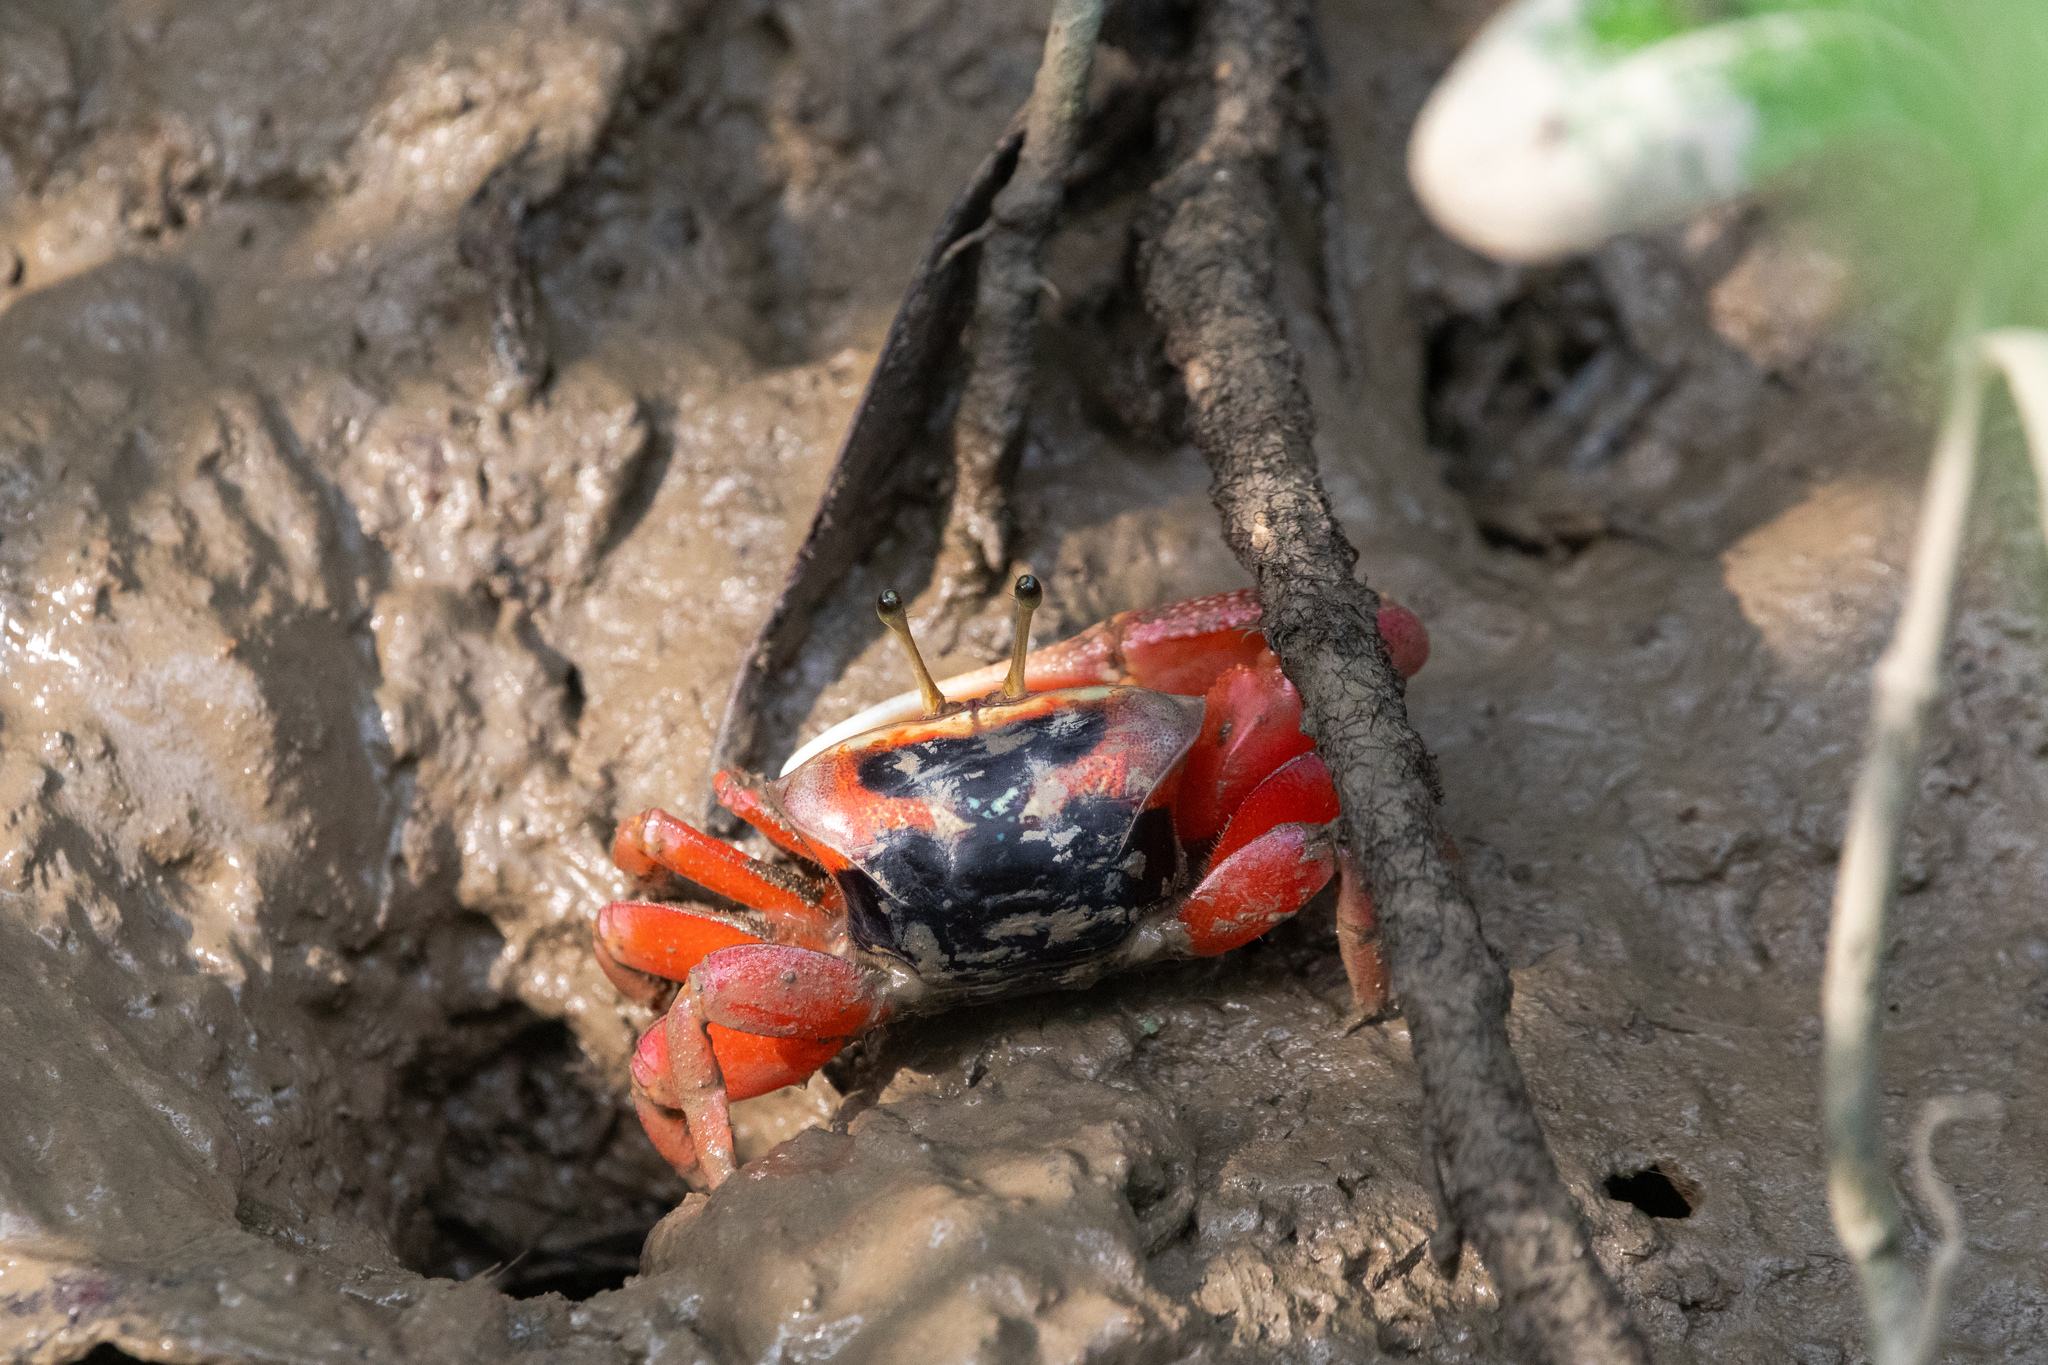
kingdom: Animalia
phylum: Arthropoda
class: Malacostraca
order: Decapoda
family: Ocypodidae
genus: Tubuca
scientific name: Tubuca arcuata
